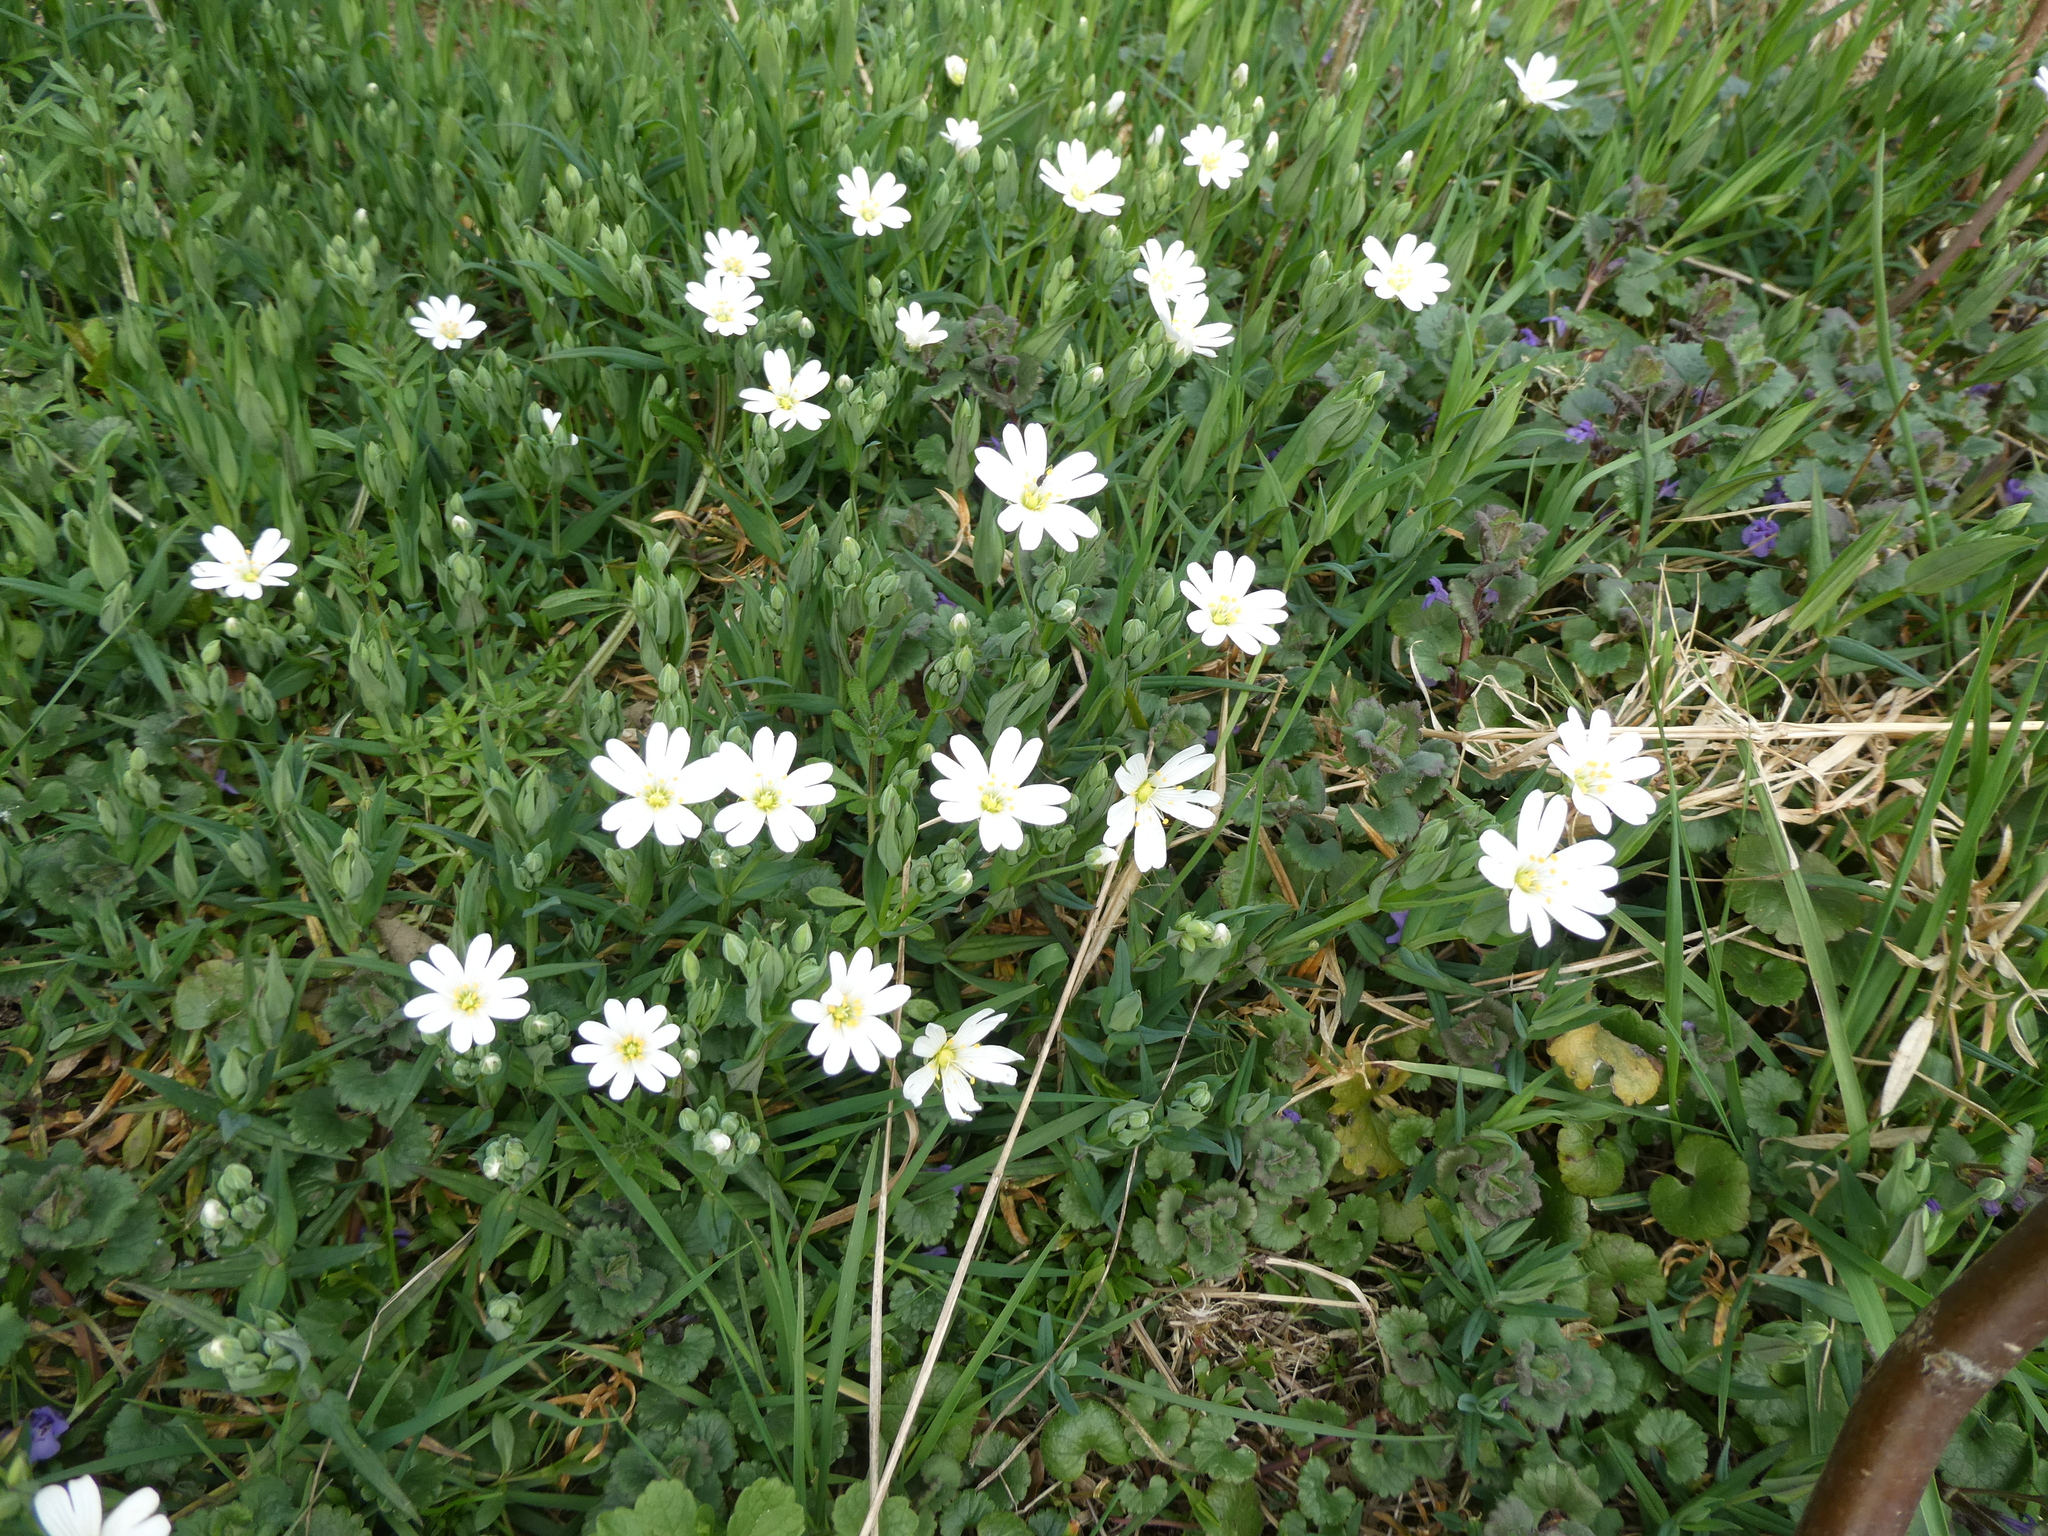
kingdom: Plantae
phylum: Tracheophyta
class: Magnoliopsida
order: Caryophyllales
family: Caryophyllaceae
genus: Rabelera
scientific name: Rabelera holostea
